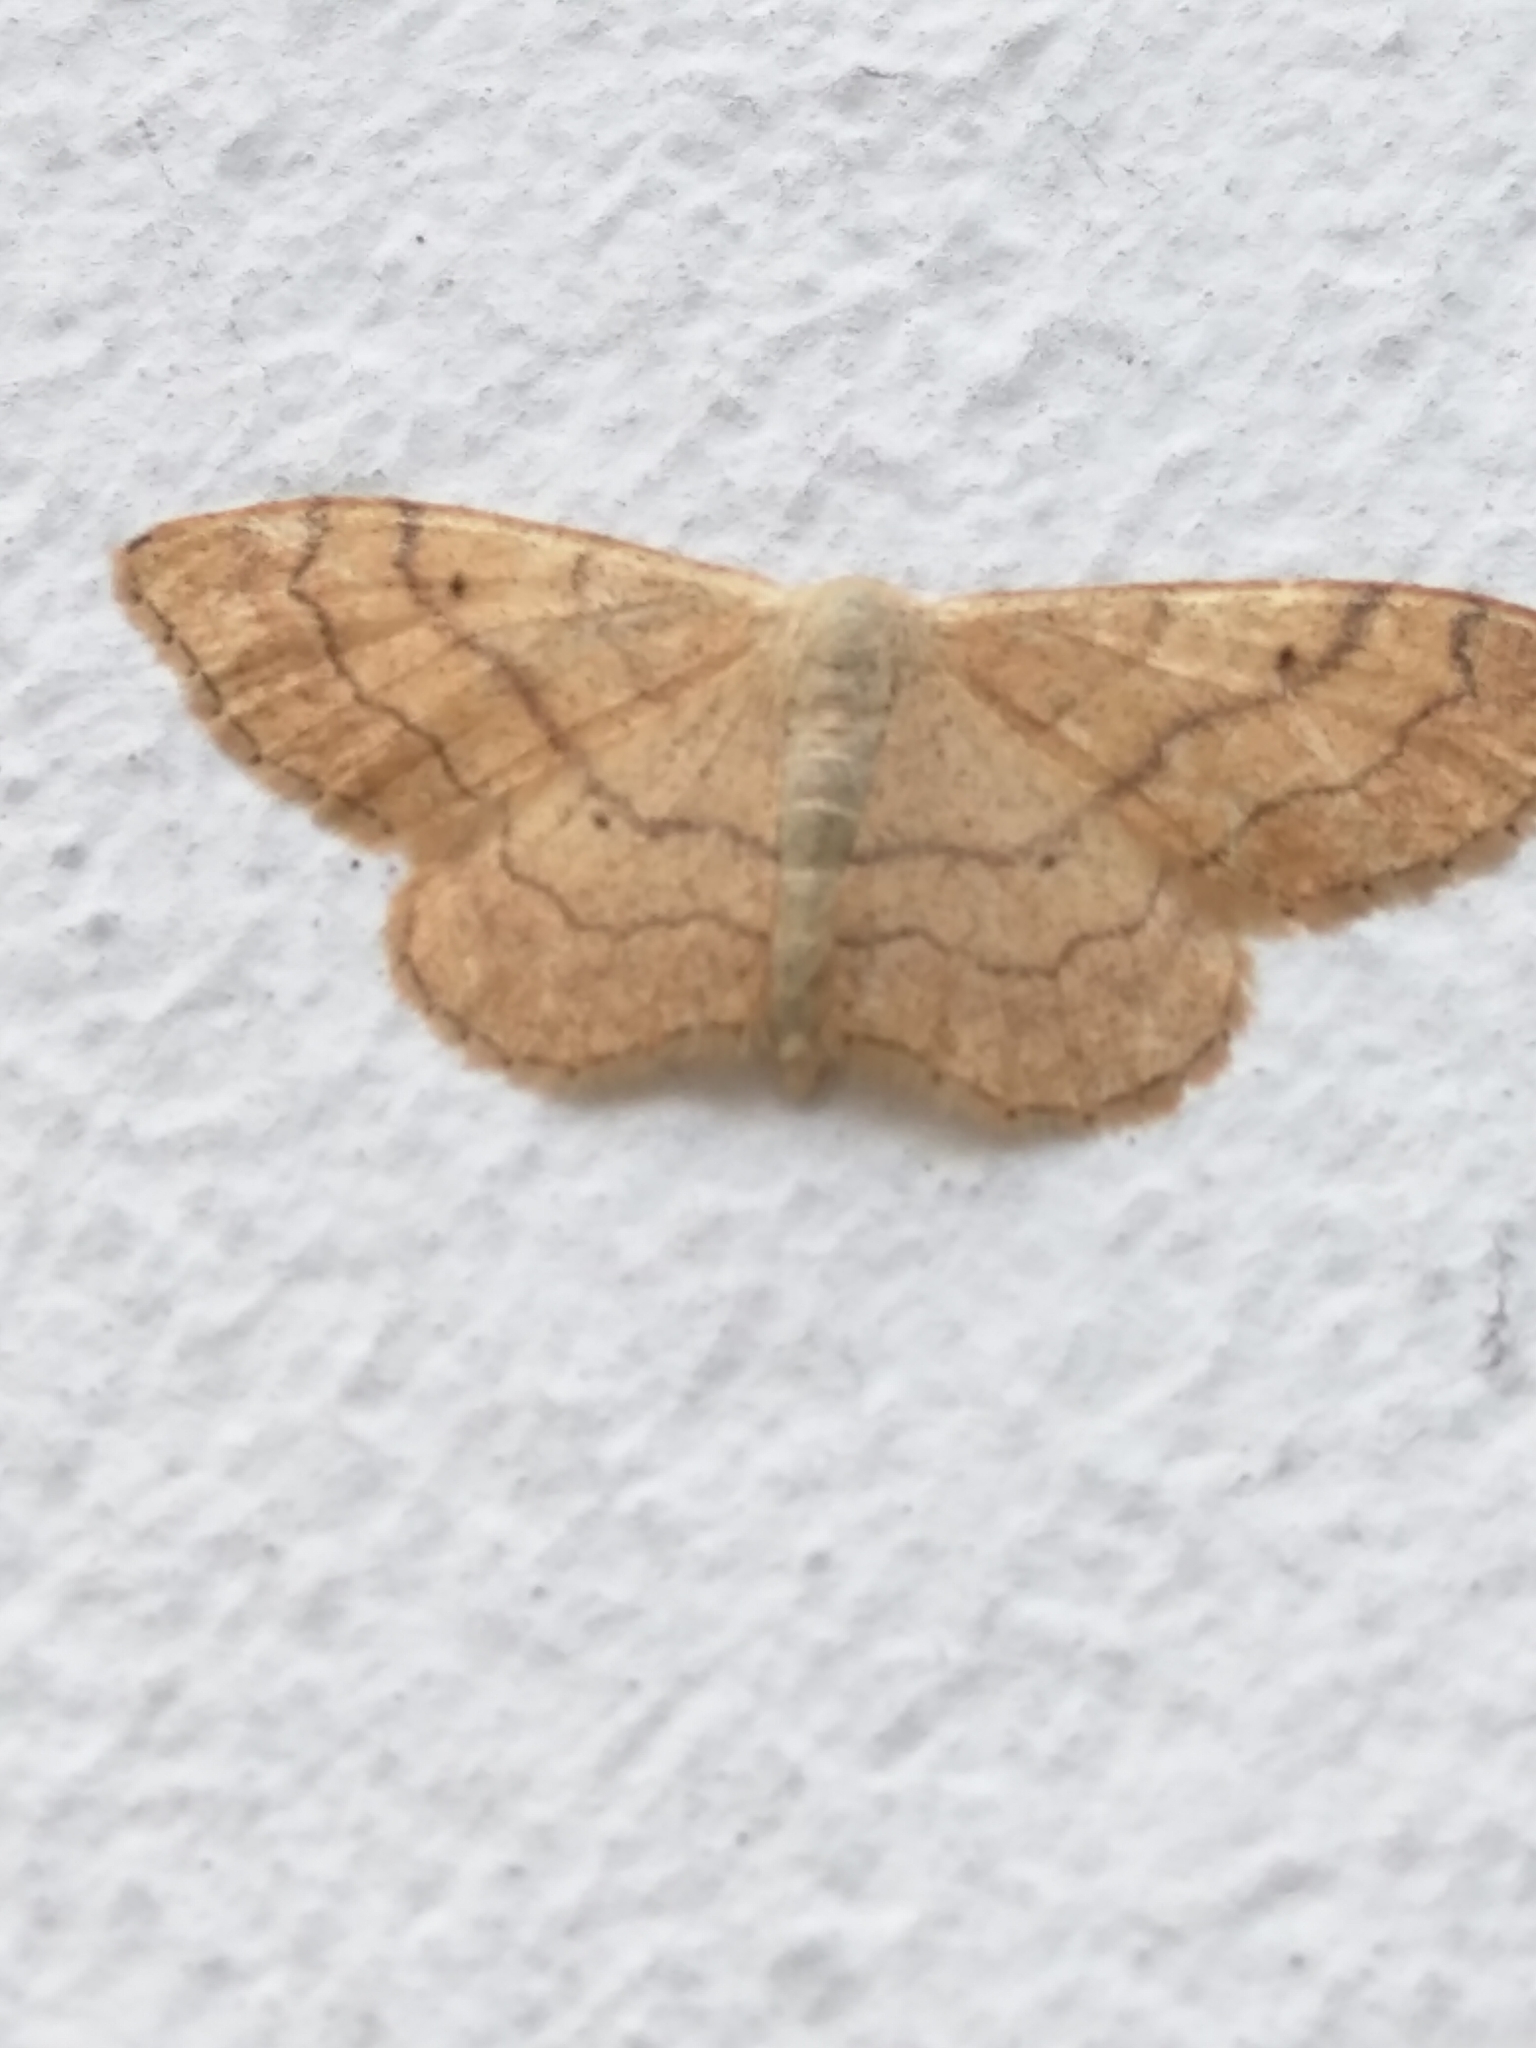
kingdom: Animalia
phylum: Arthropoda
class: Insecta
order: Lepidoptera
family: Geometridae
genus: Idaea
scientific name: Idaea aversata
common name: Riband wave
